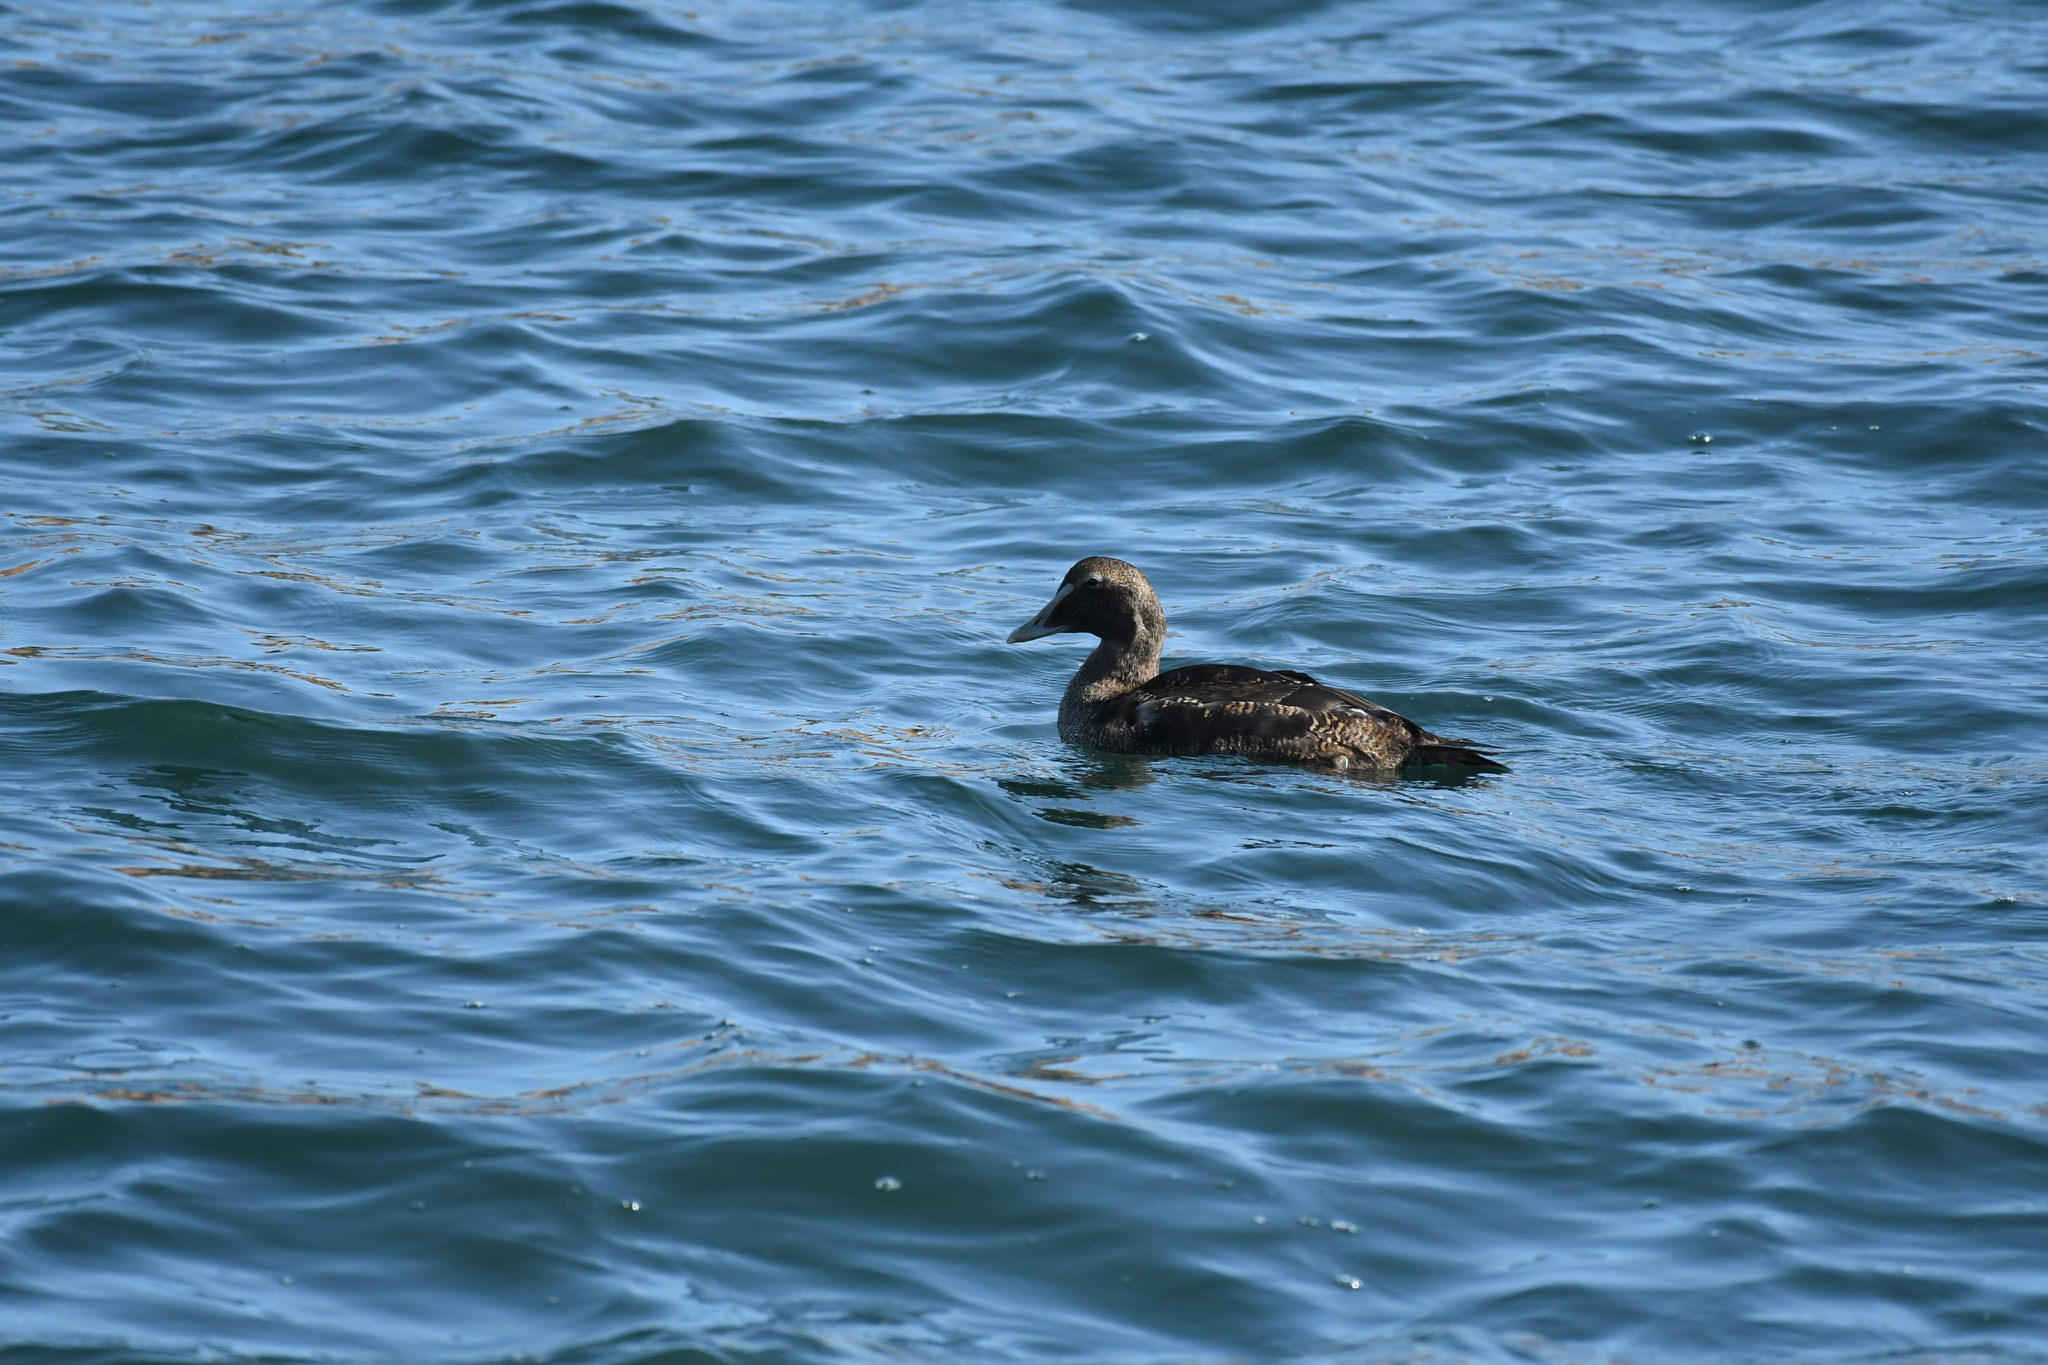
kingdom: Animalia
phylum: Chordata
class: Aves
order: Anseriformes
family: Anatidae
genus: Somateria
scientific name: Somateria mollissima
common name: Common eider
